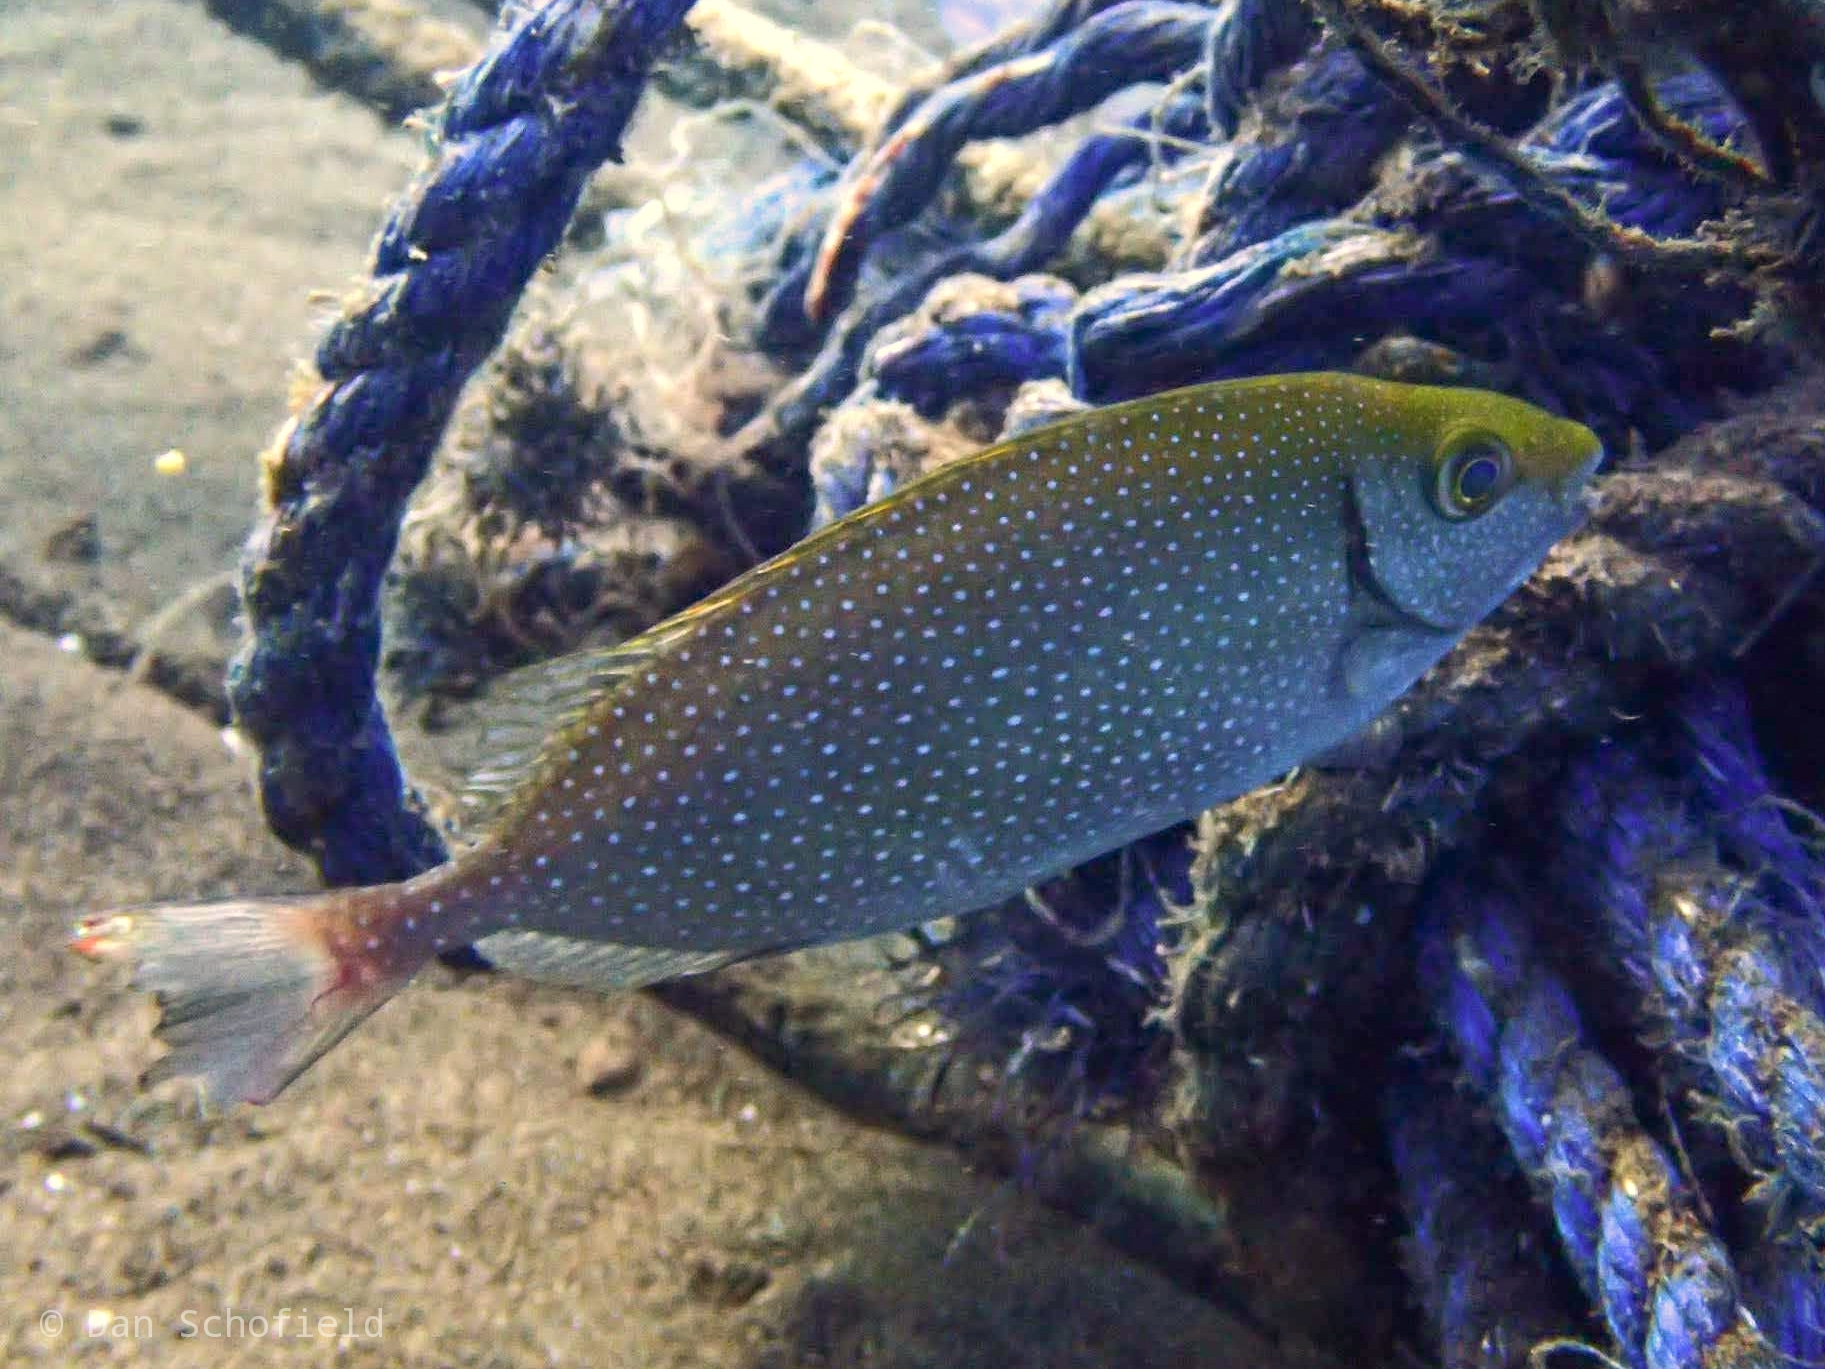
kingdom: Animalia
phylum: Chordata
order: Perciformes
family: Siganidae
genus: Siganus
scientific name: Siganus fuscescens
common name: Dusky rabbitfish
